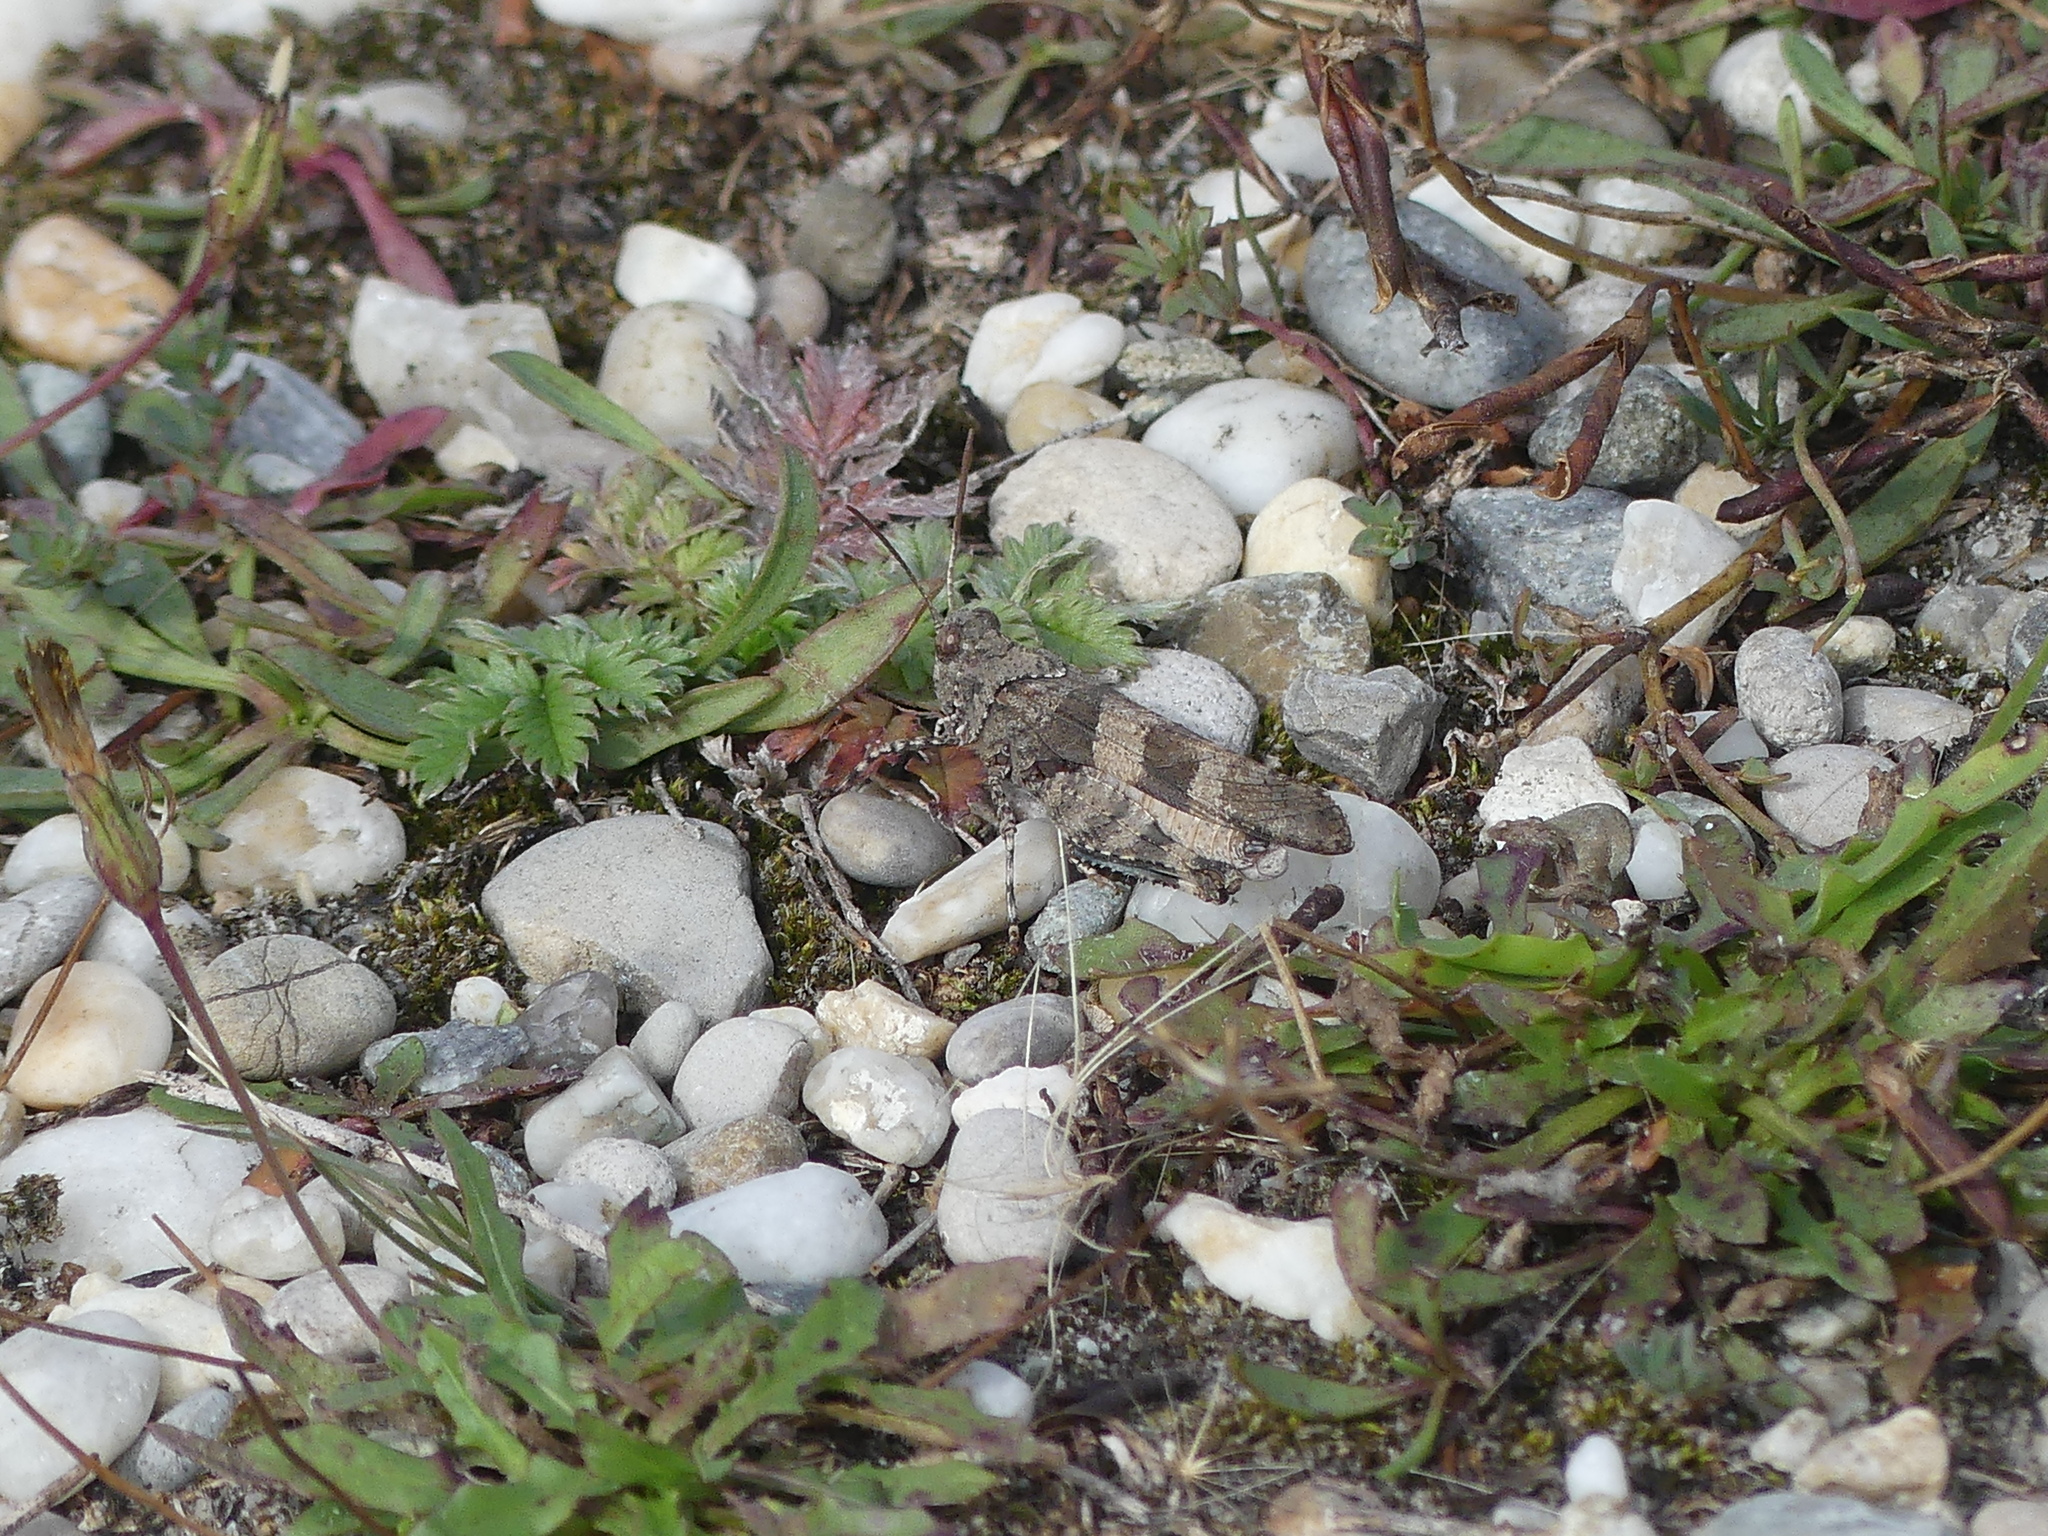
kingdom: Animalia
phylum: Arthropoda
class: Insecta
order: Orthoptera
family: Acrididae
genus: Oedipoda
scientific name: Oedipoda caerulescens
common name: Blue-winged grasshopper
